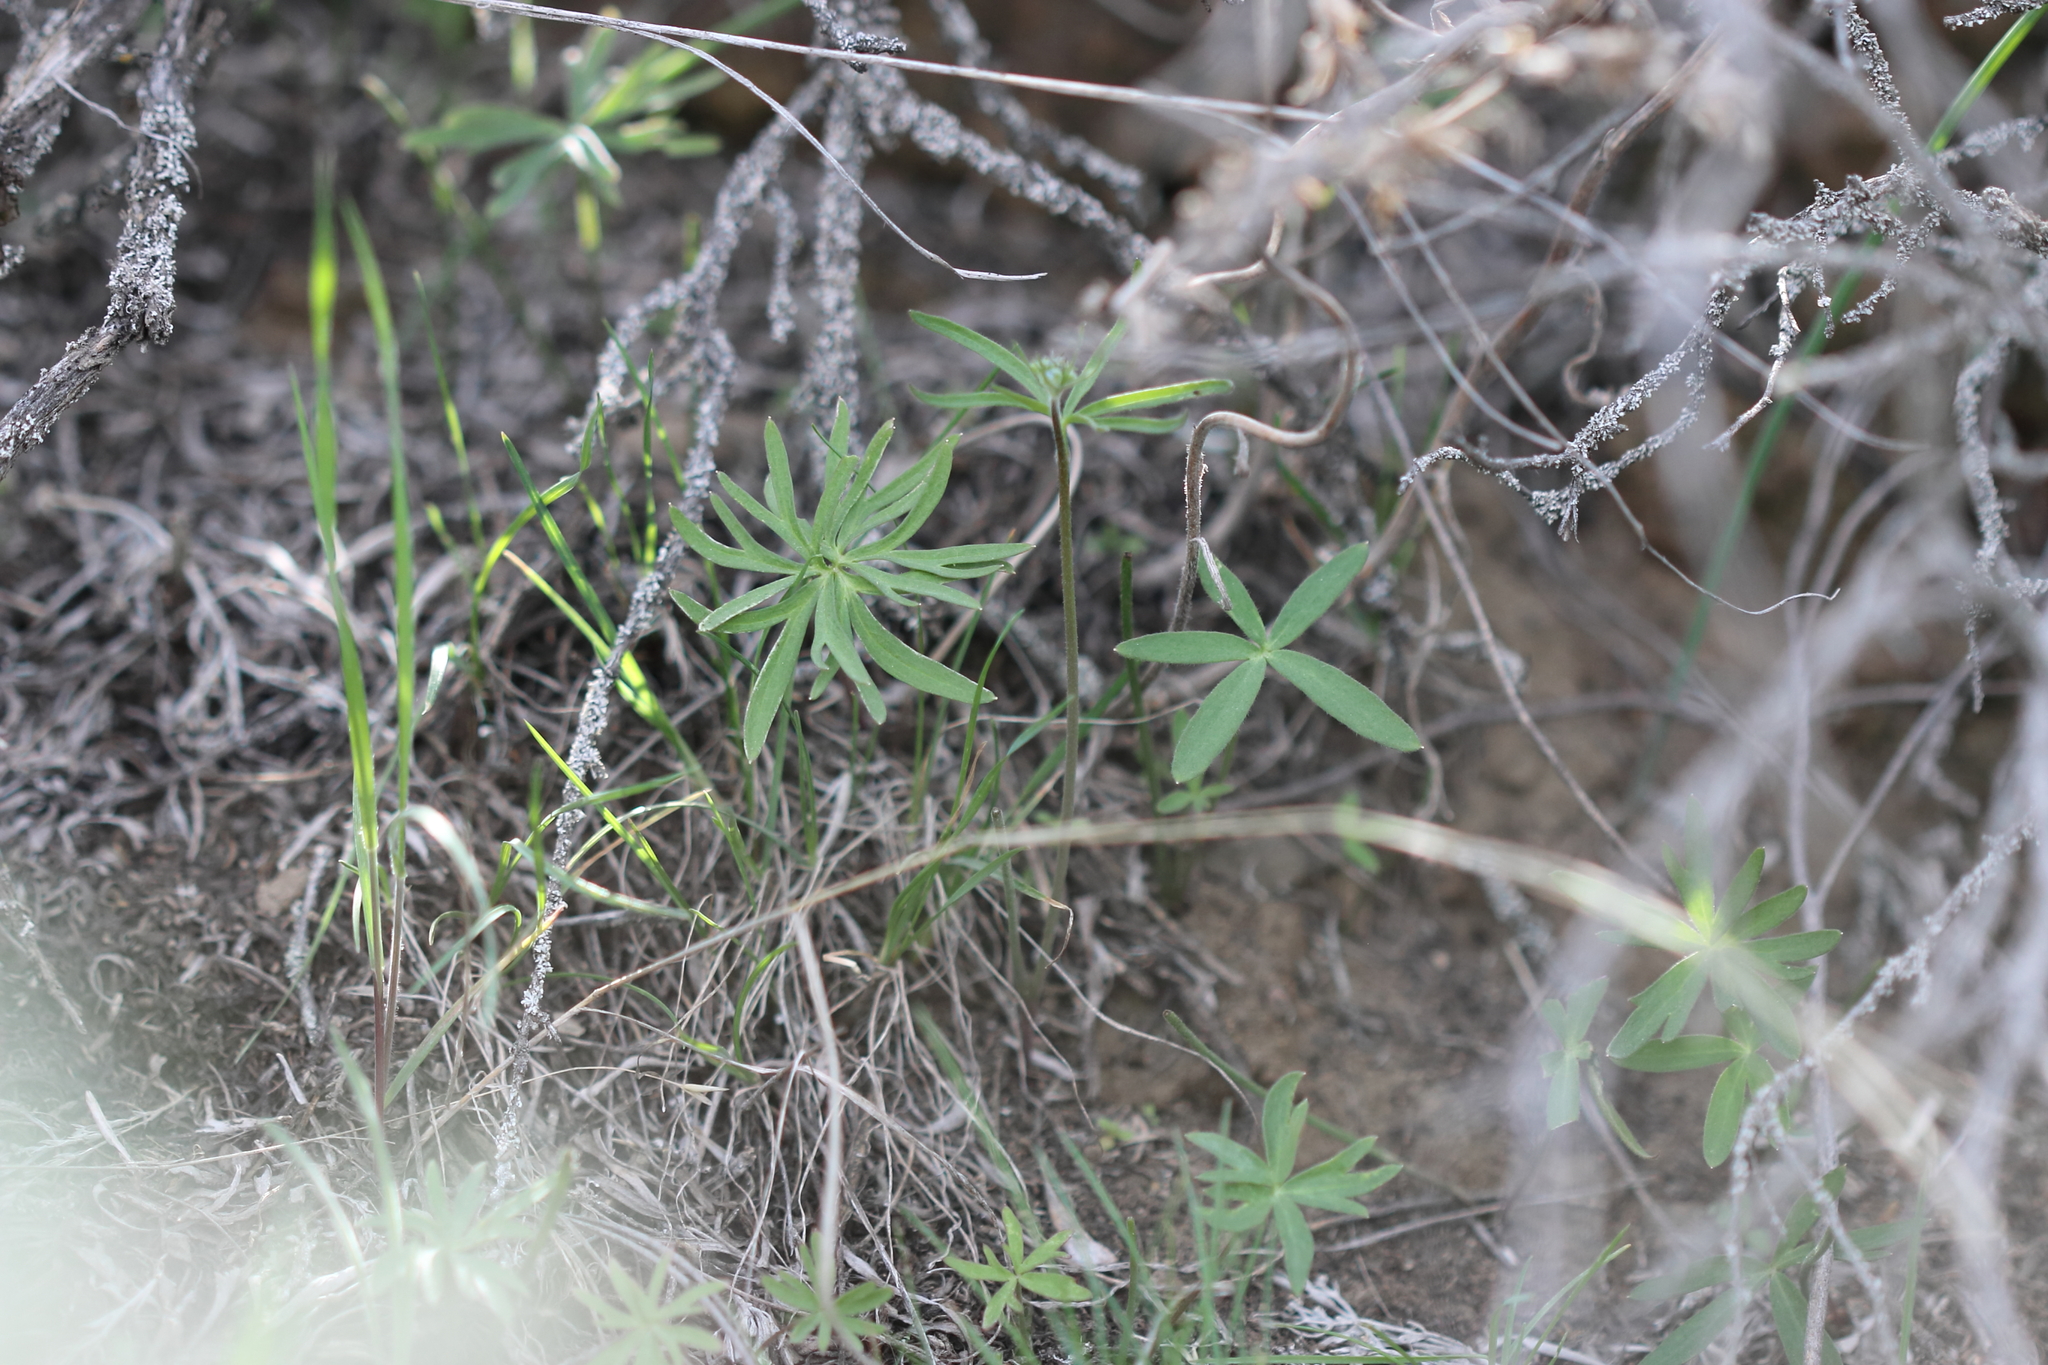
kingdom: Plantae
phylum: Tracheophyta
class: Magnoliopsida
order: Ranunculales
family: Ranunculaceae
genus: Delphinium
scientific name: Delphinium nuttallianum
